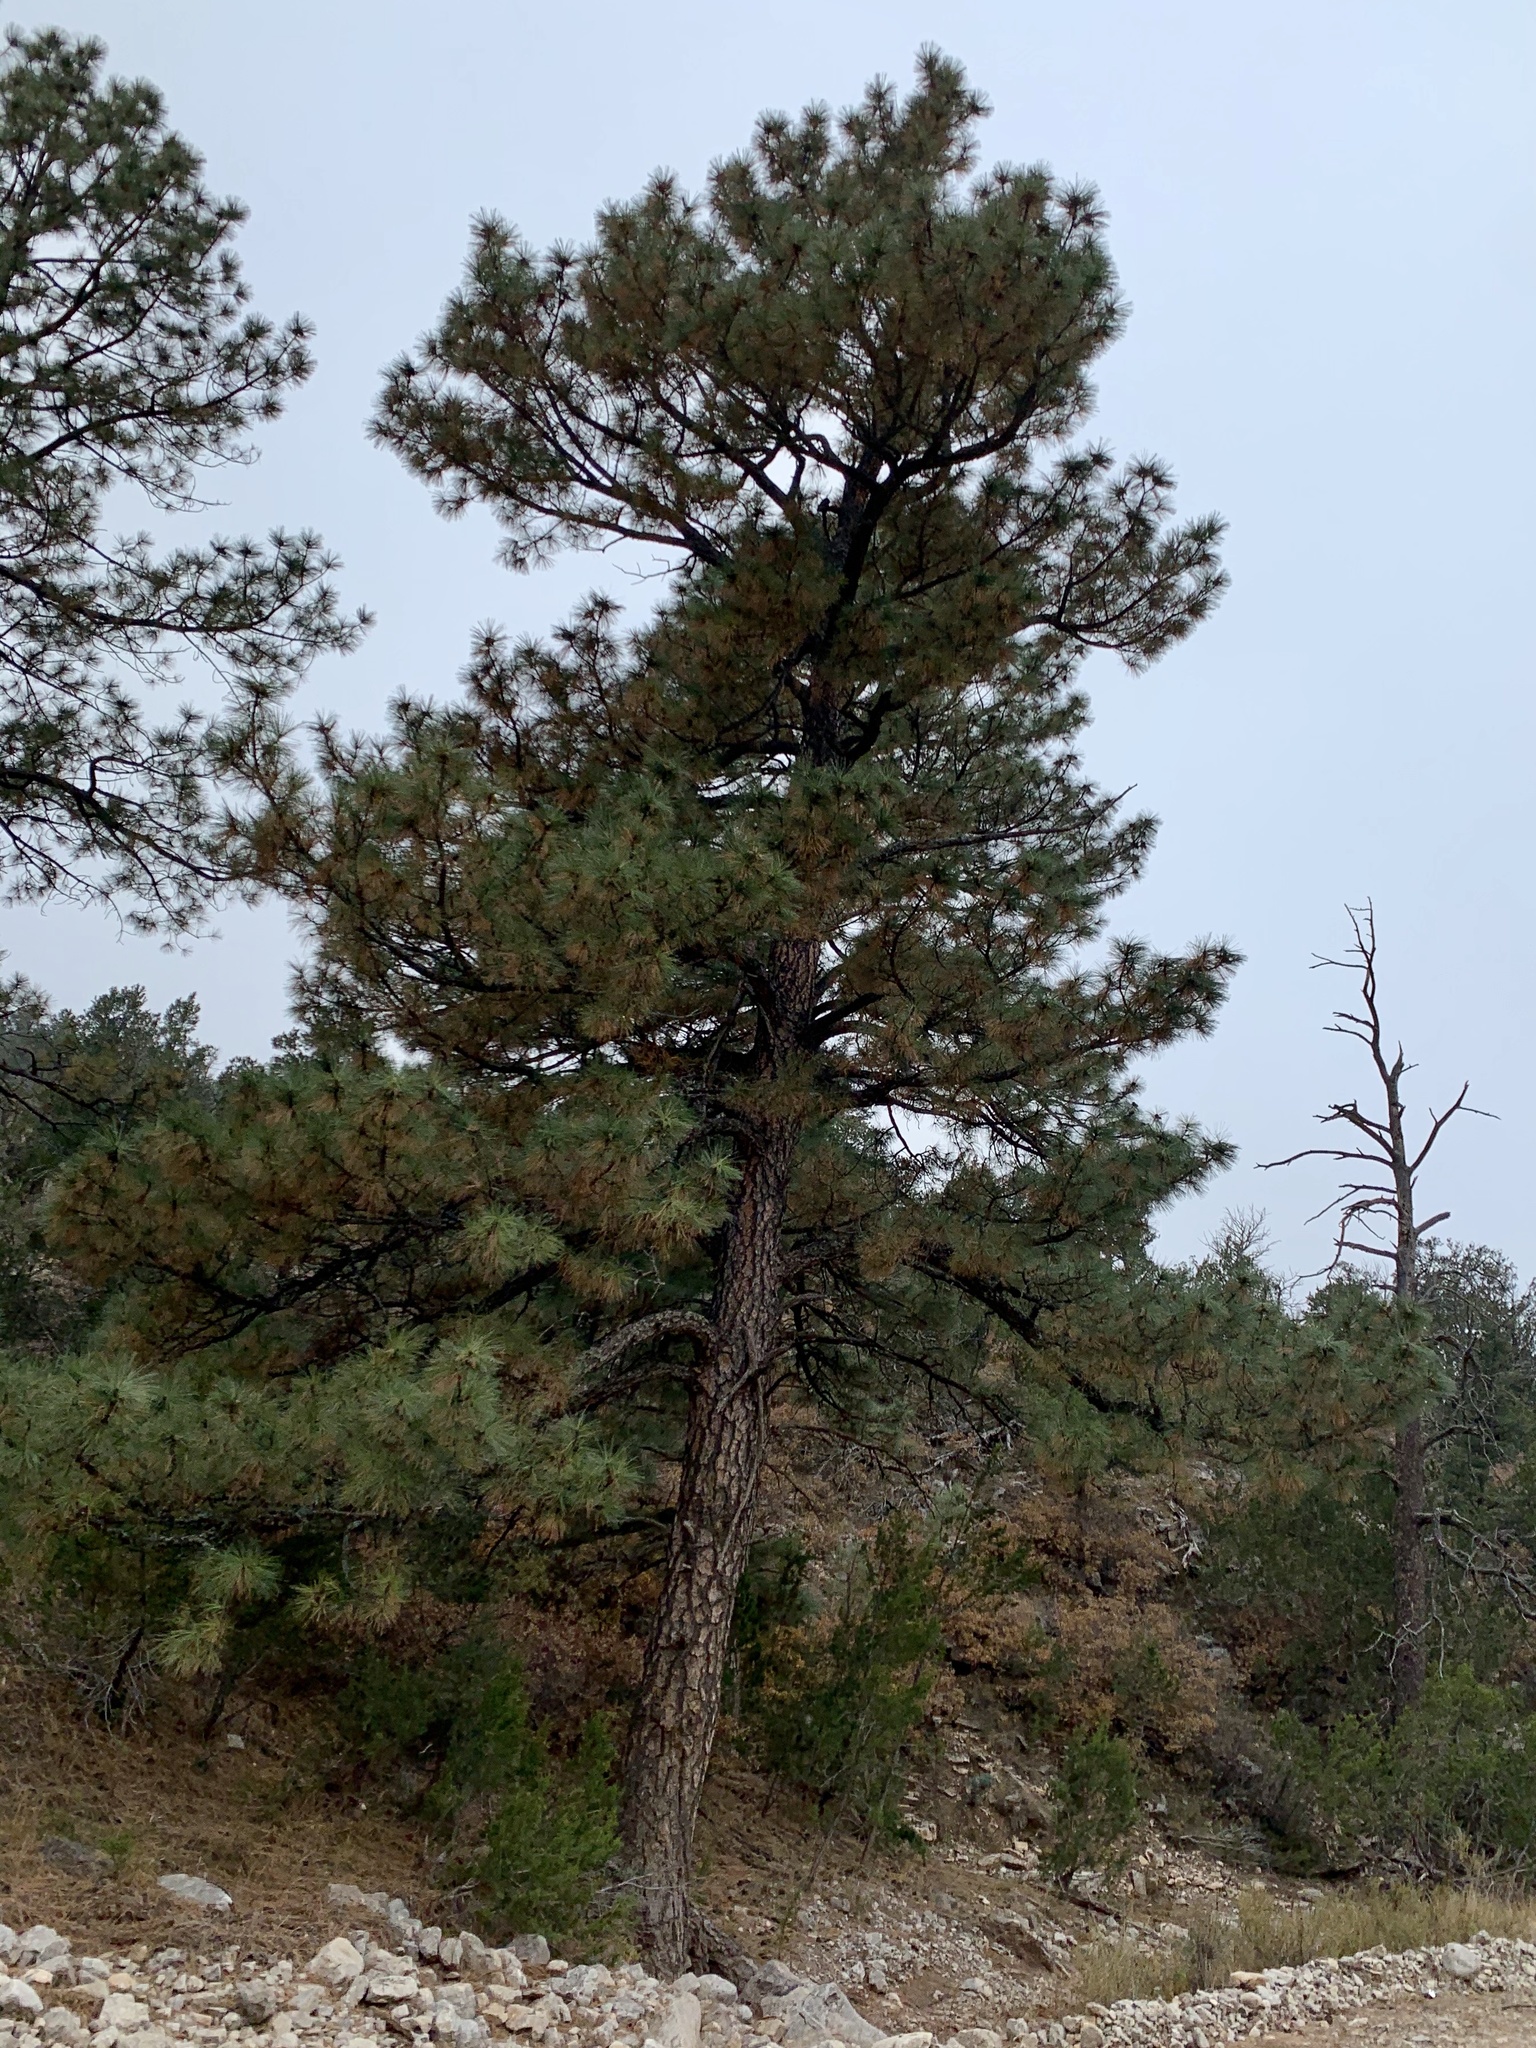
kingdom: Plantae
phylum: Tracheophyta
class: Pinopsida
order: Pinales
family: Pinaceae
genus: Pinus
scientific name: Pinus ponderosa
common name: Western yellow-pine
